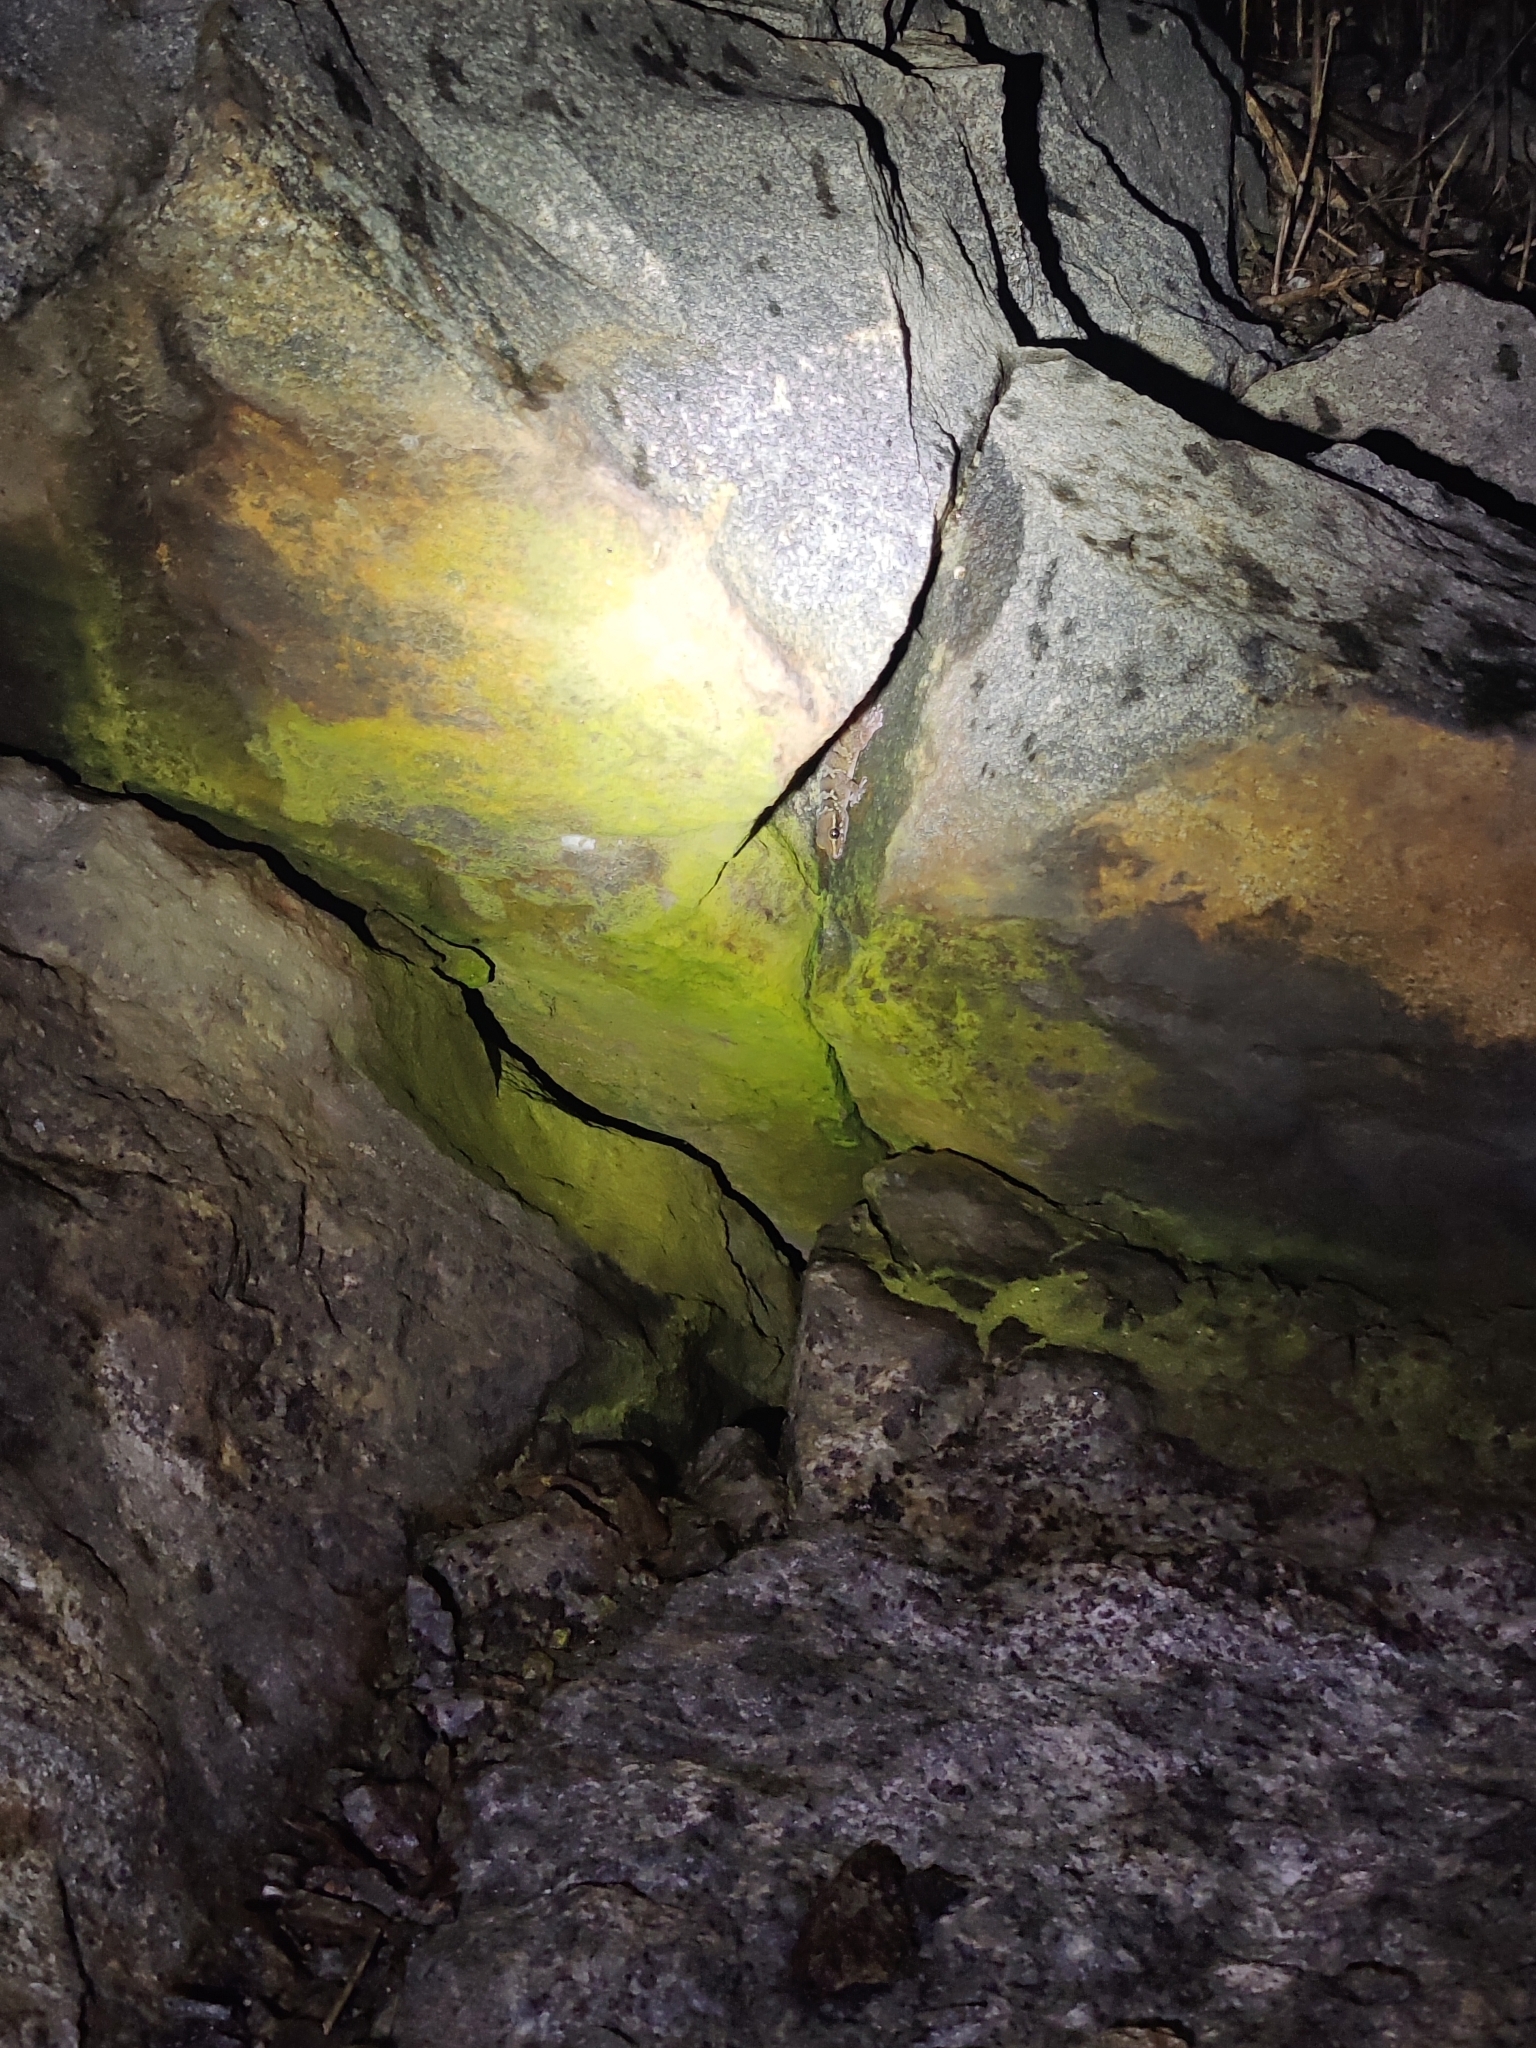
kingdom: Animalia
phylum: Chordata
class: Squamata
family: Gekkonidae
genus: Hemidactylus
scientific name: Hemidactylus triedrus
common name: Blotched house gecko
